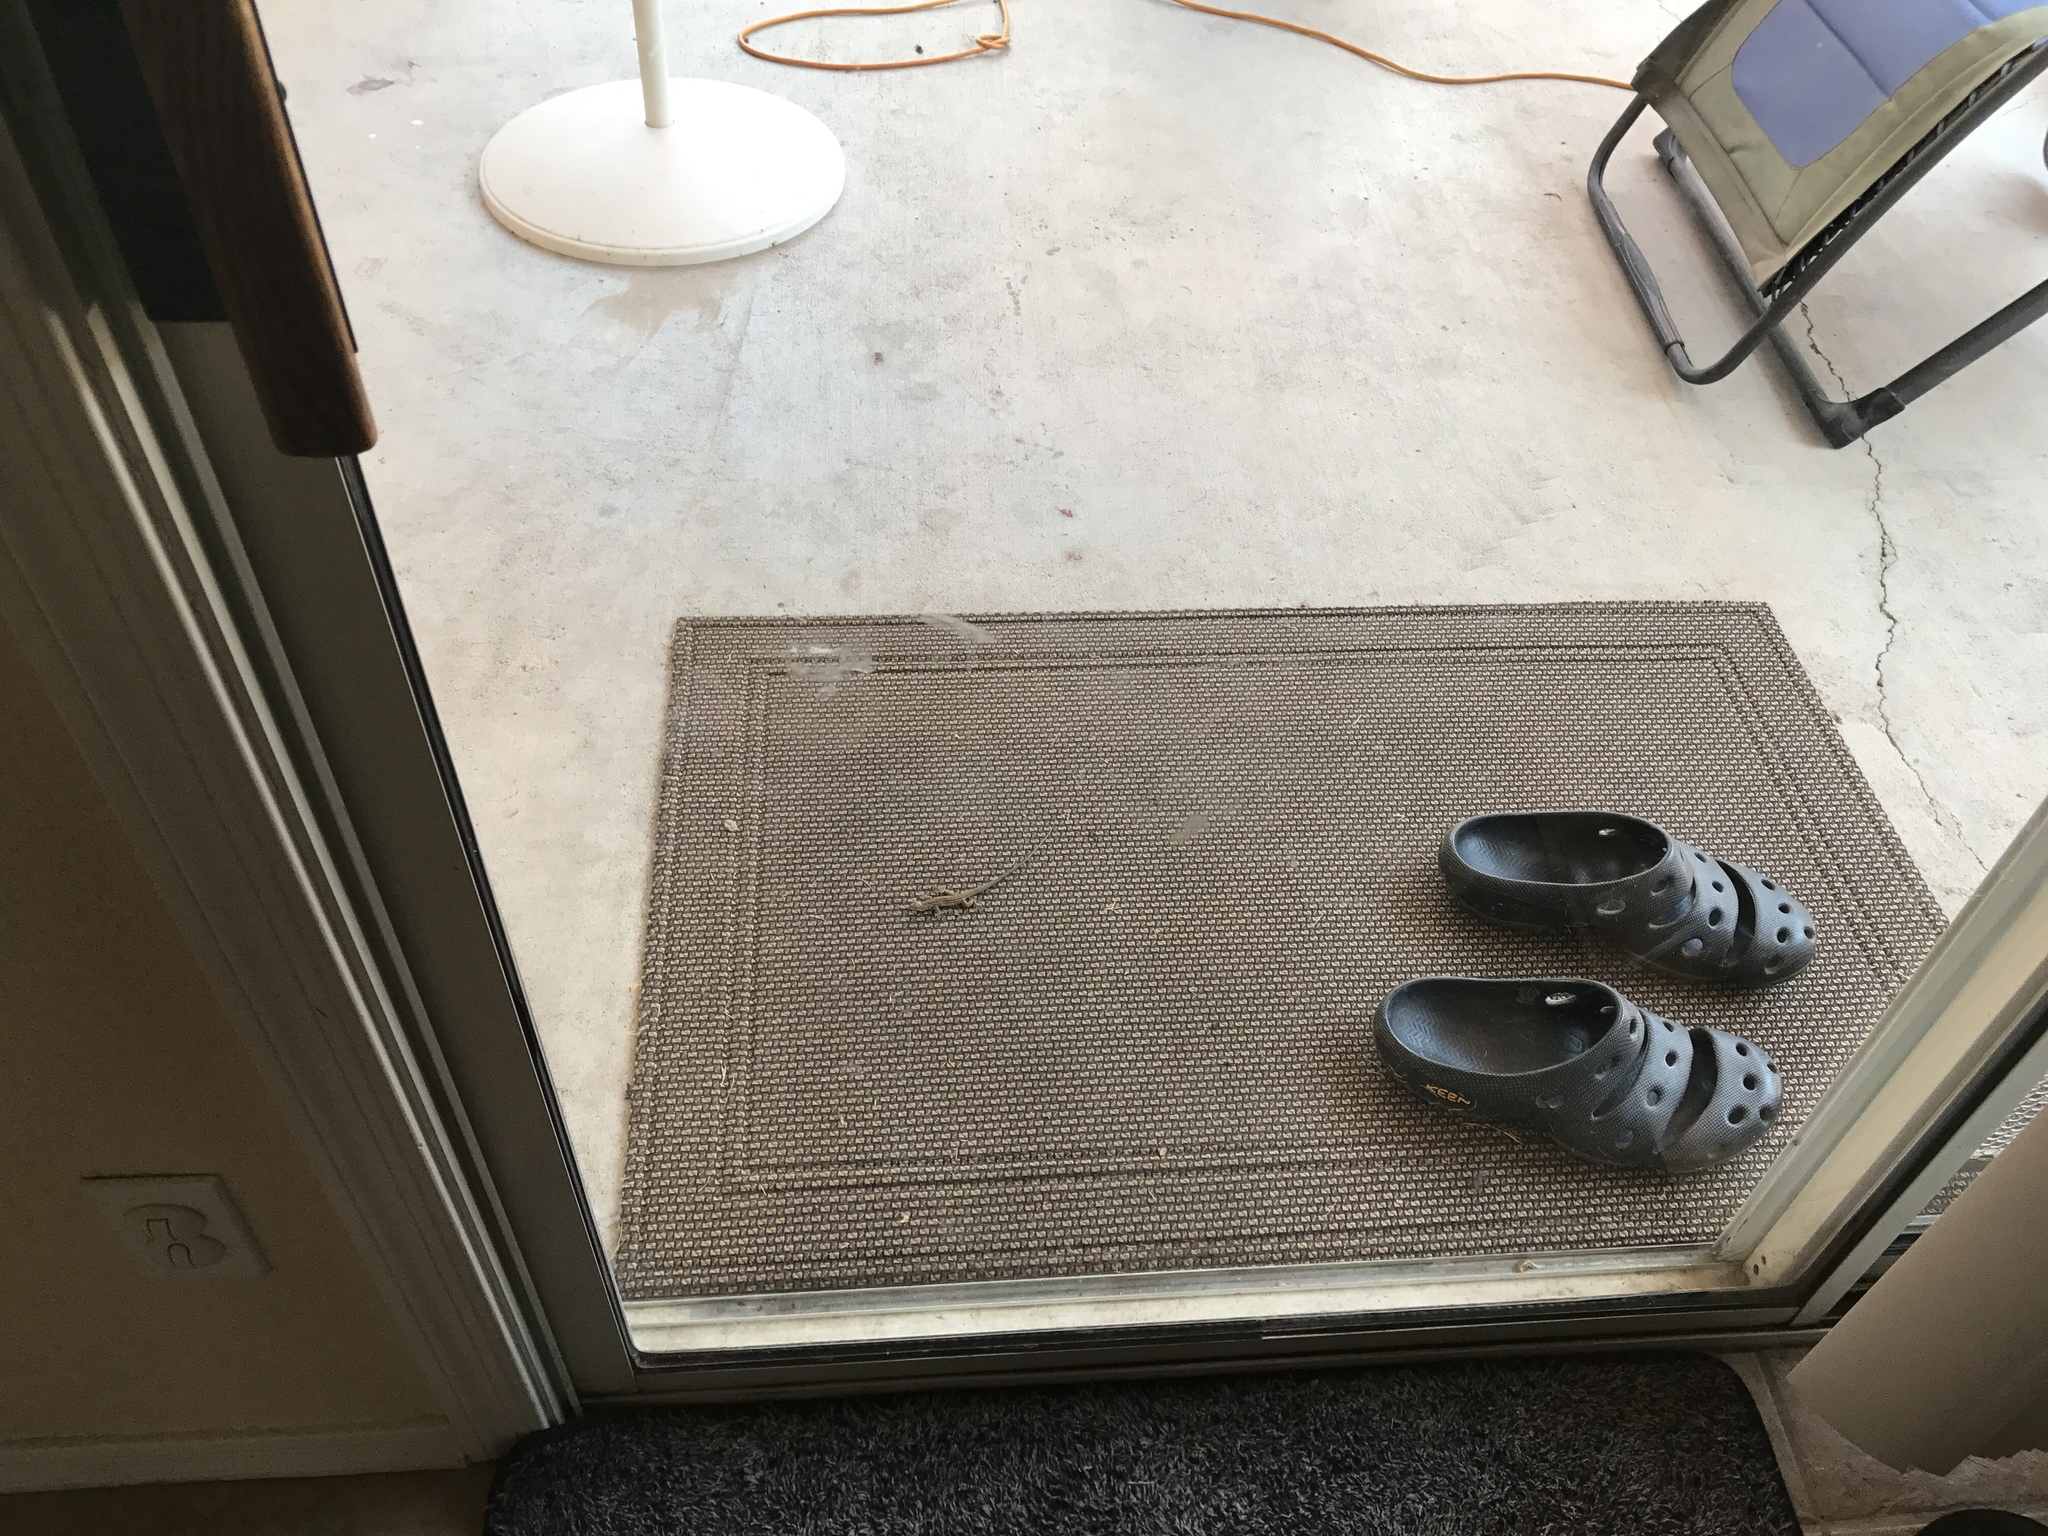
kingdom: Animalia
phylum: Chordata
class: Squamata
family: Teiidae
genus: Aspidoscelis
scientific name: Aspidoscelis tigris
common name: Tiger whiptail
